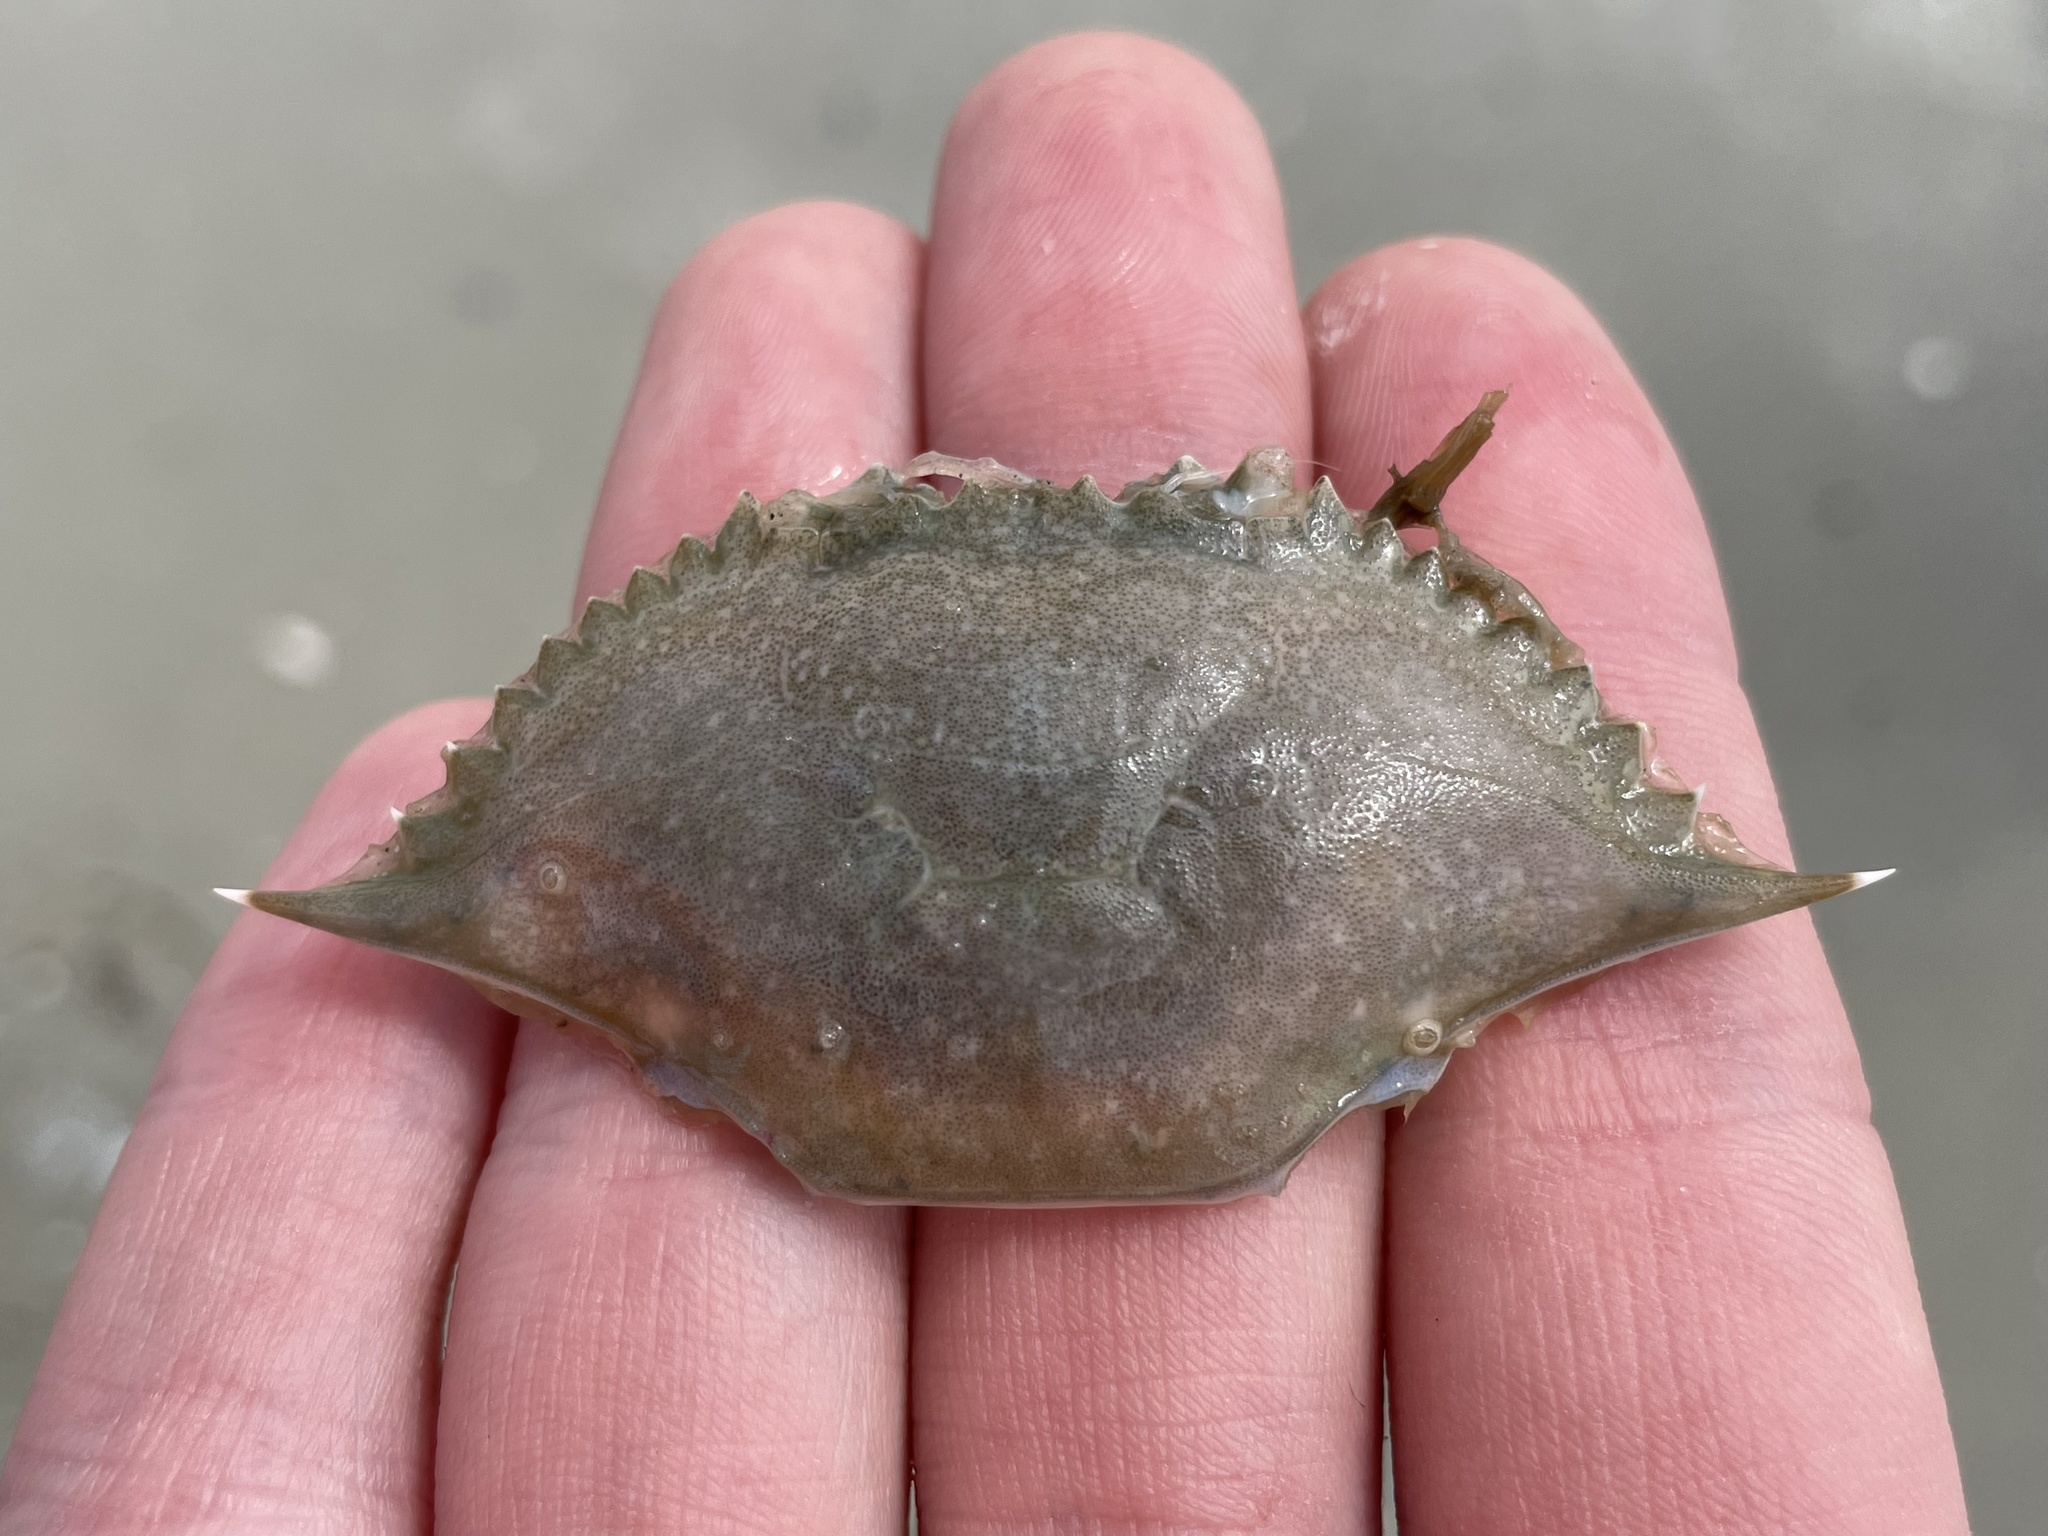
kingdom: Animalia
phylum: Arthropoda
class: Malacostraca
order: Decapoda
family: Portunidae
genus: Callinectes
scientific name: Callinectes similis
